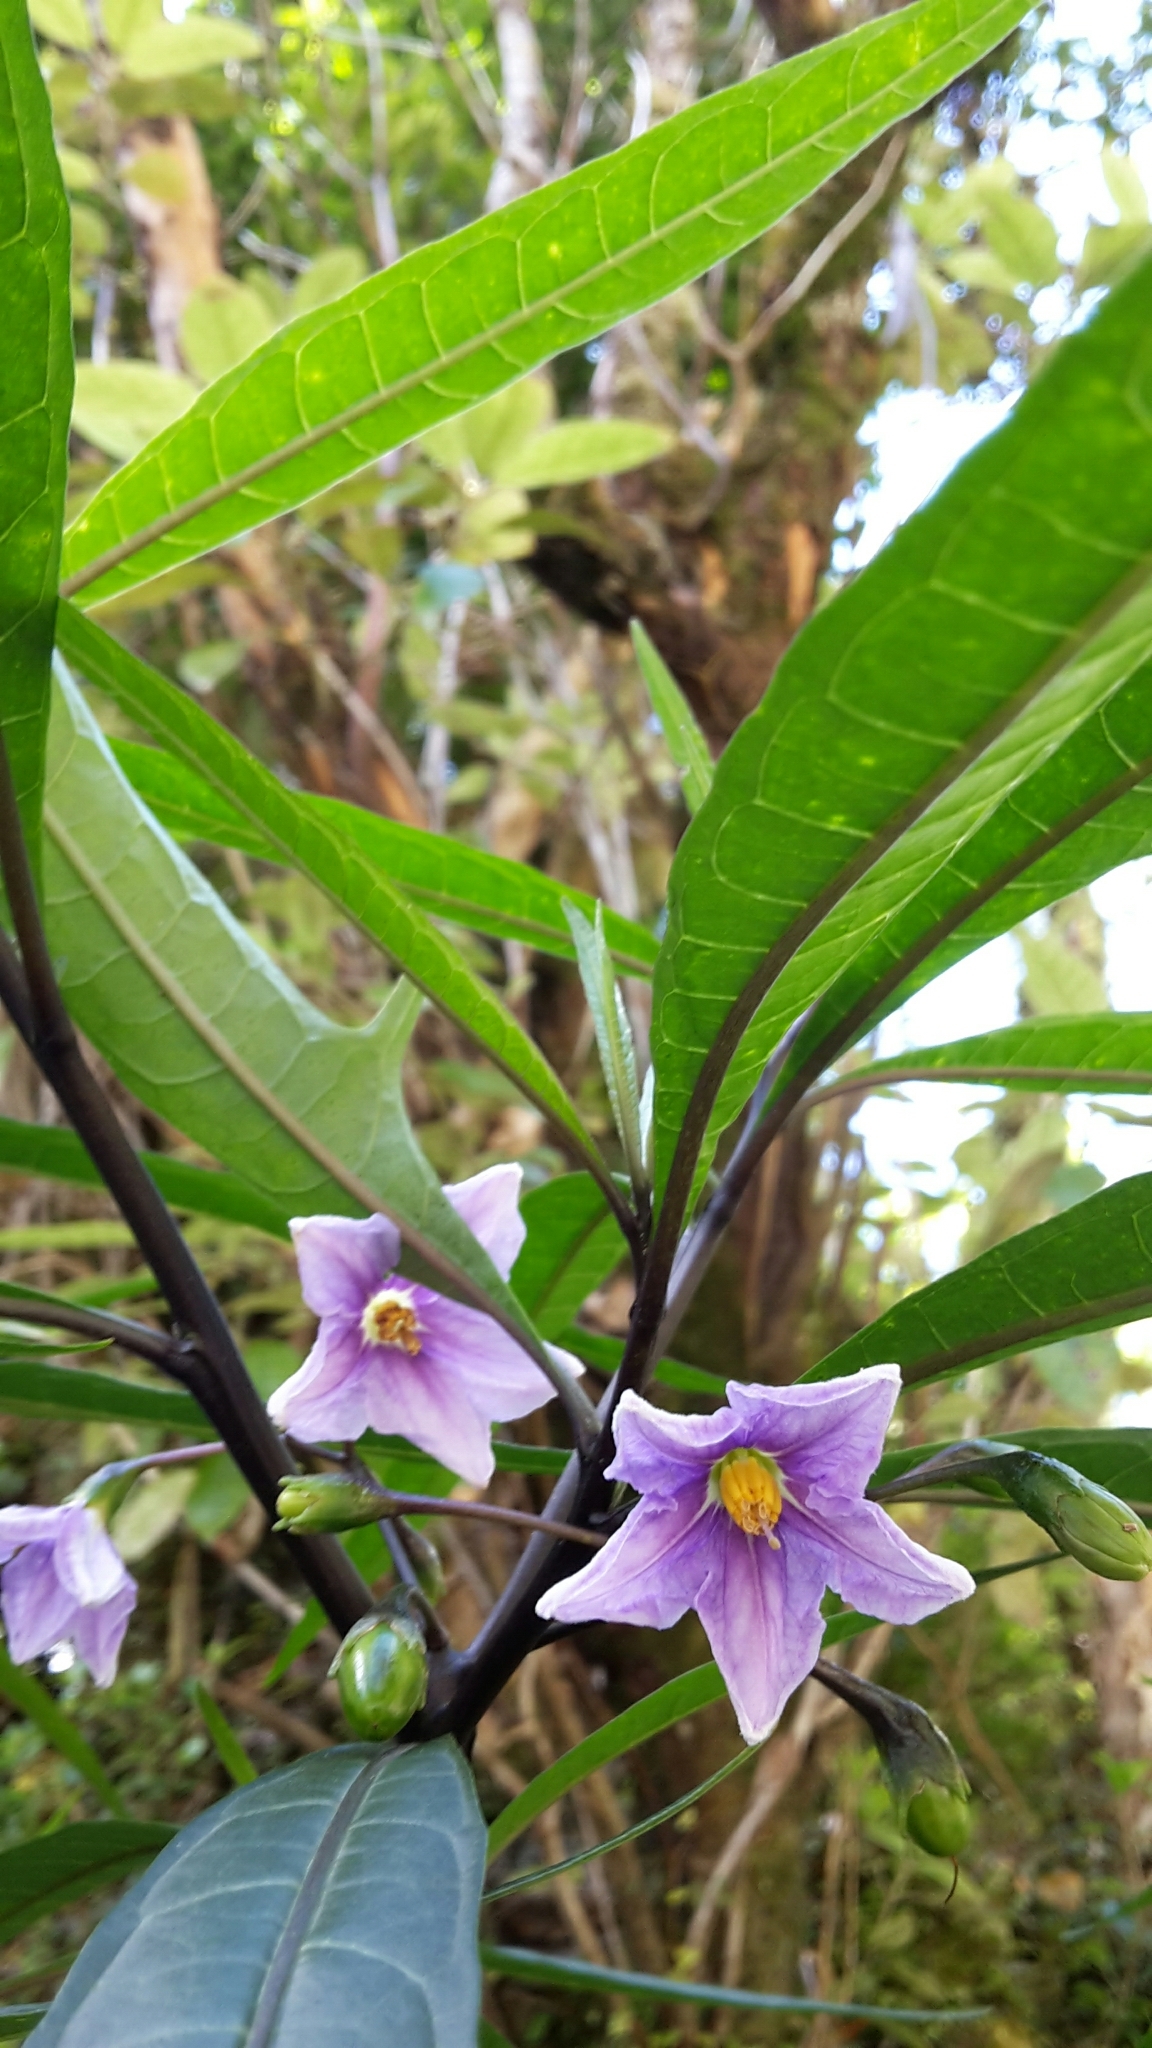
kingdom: Plantae
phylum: Tracheophyta
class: Magnoliopsida
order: Solanales
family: Solanaceae
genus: Solanum
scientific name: Solanum aviculare
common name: New zealand nightshade
